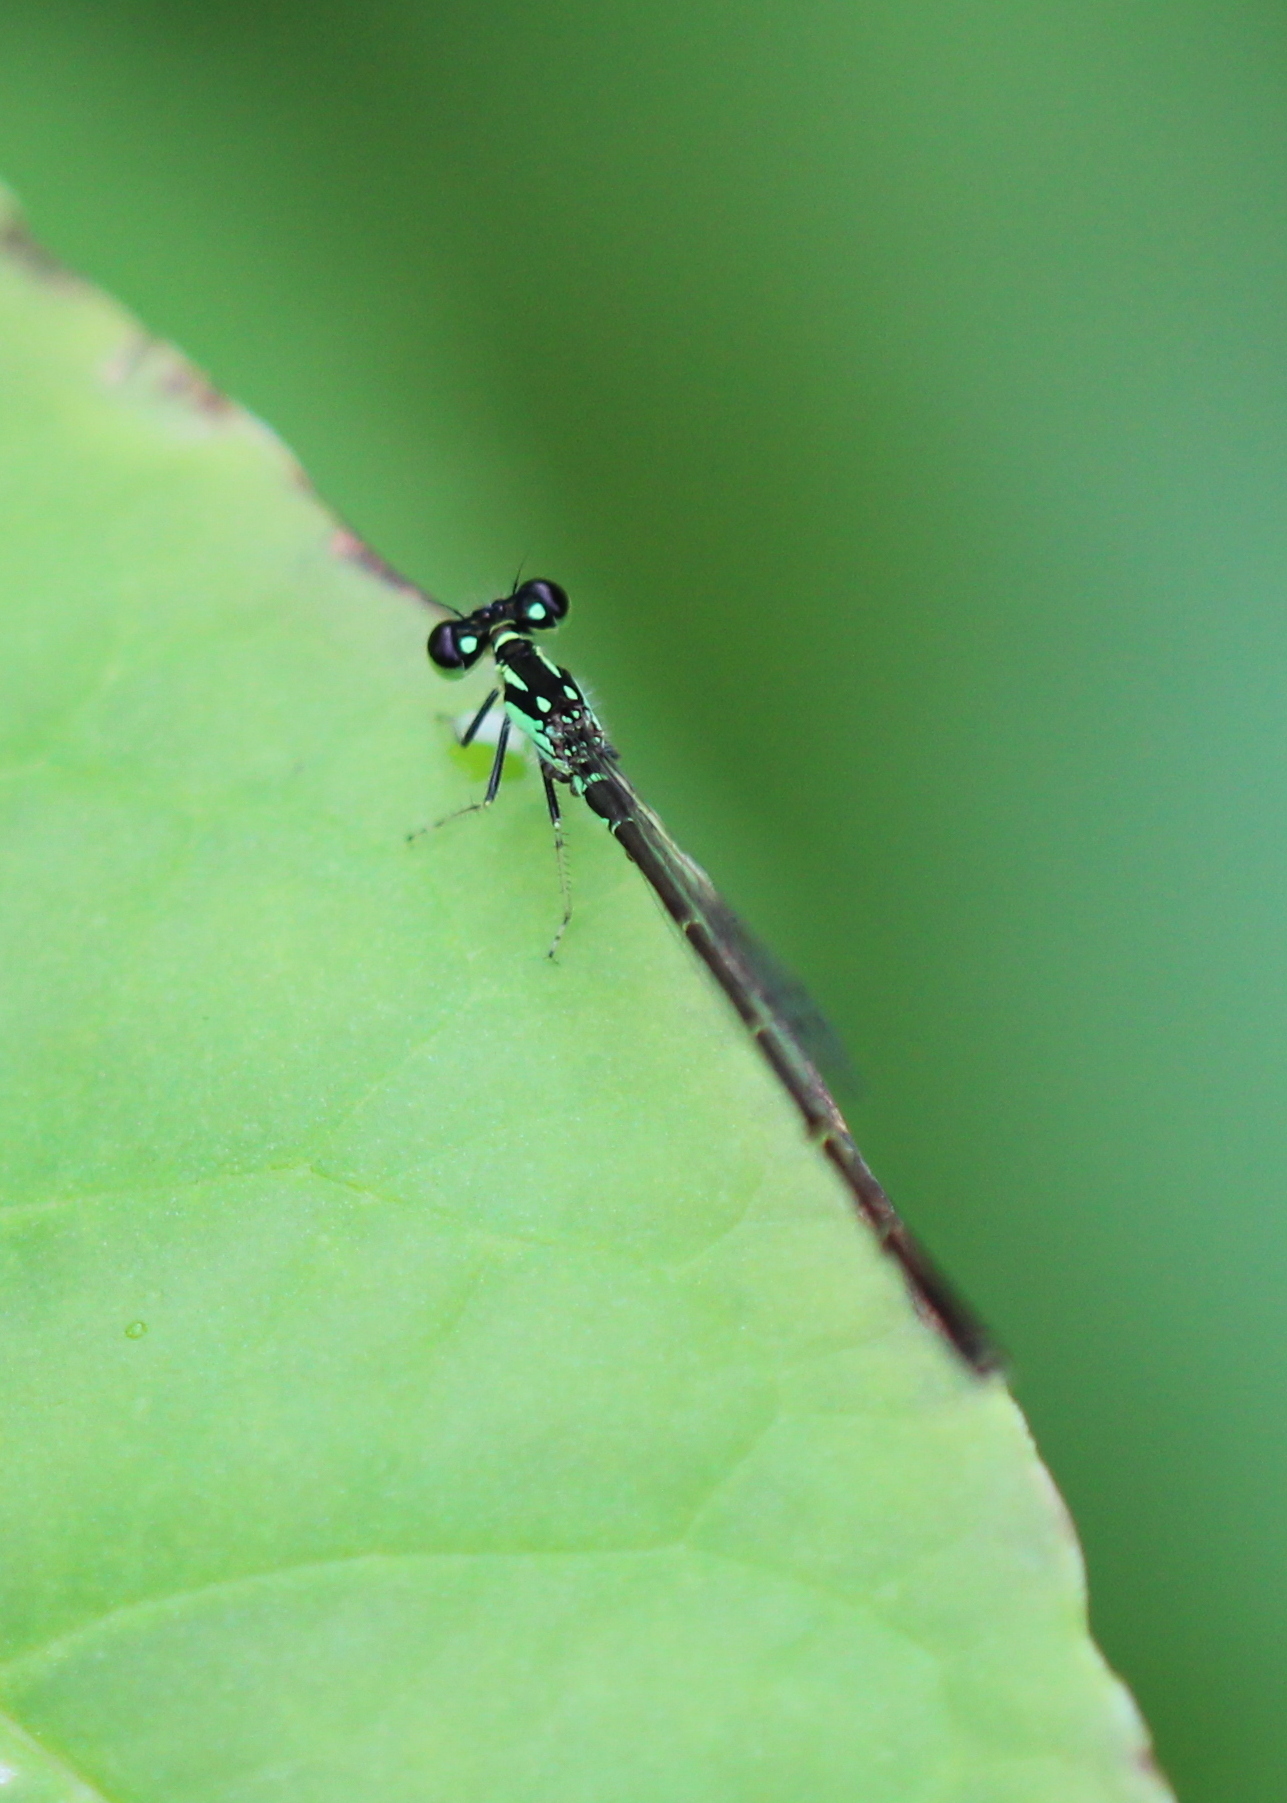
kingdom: Animalia
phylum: Arthropoda
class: Insecta
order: Odonata
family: Coenagrionidae
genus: Ischnura
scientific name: Ischnura posita
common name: Fragile forktail
